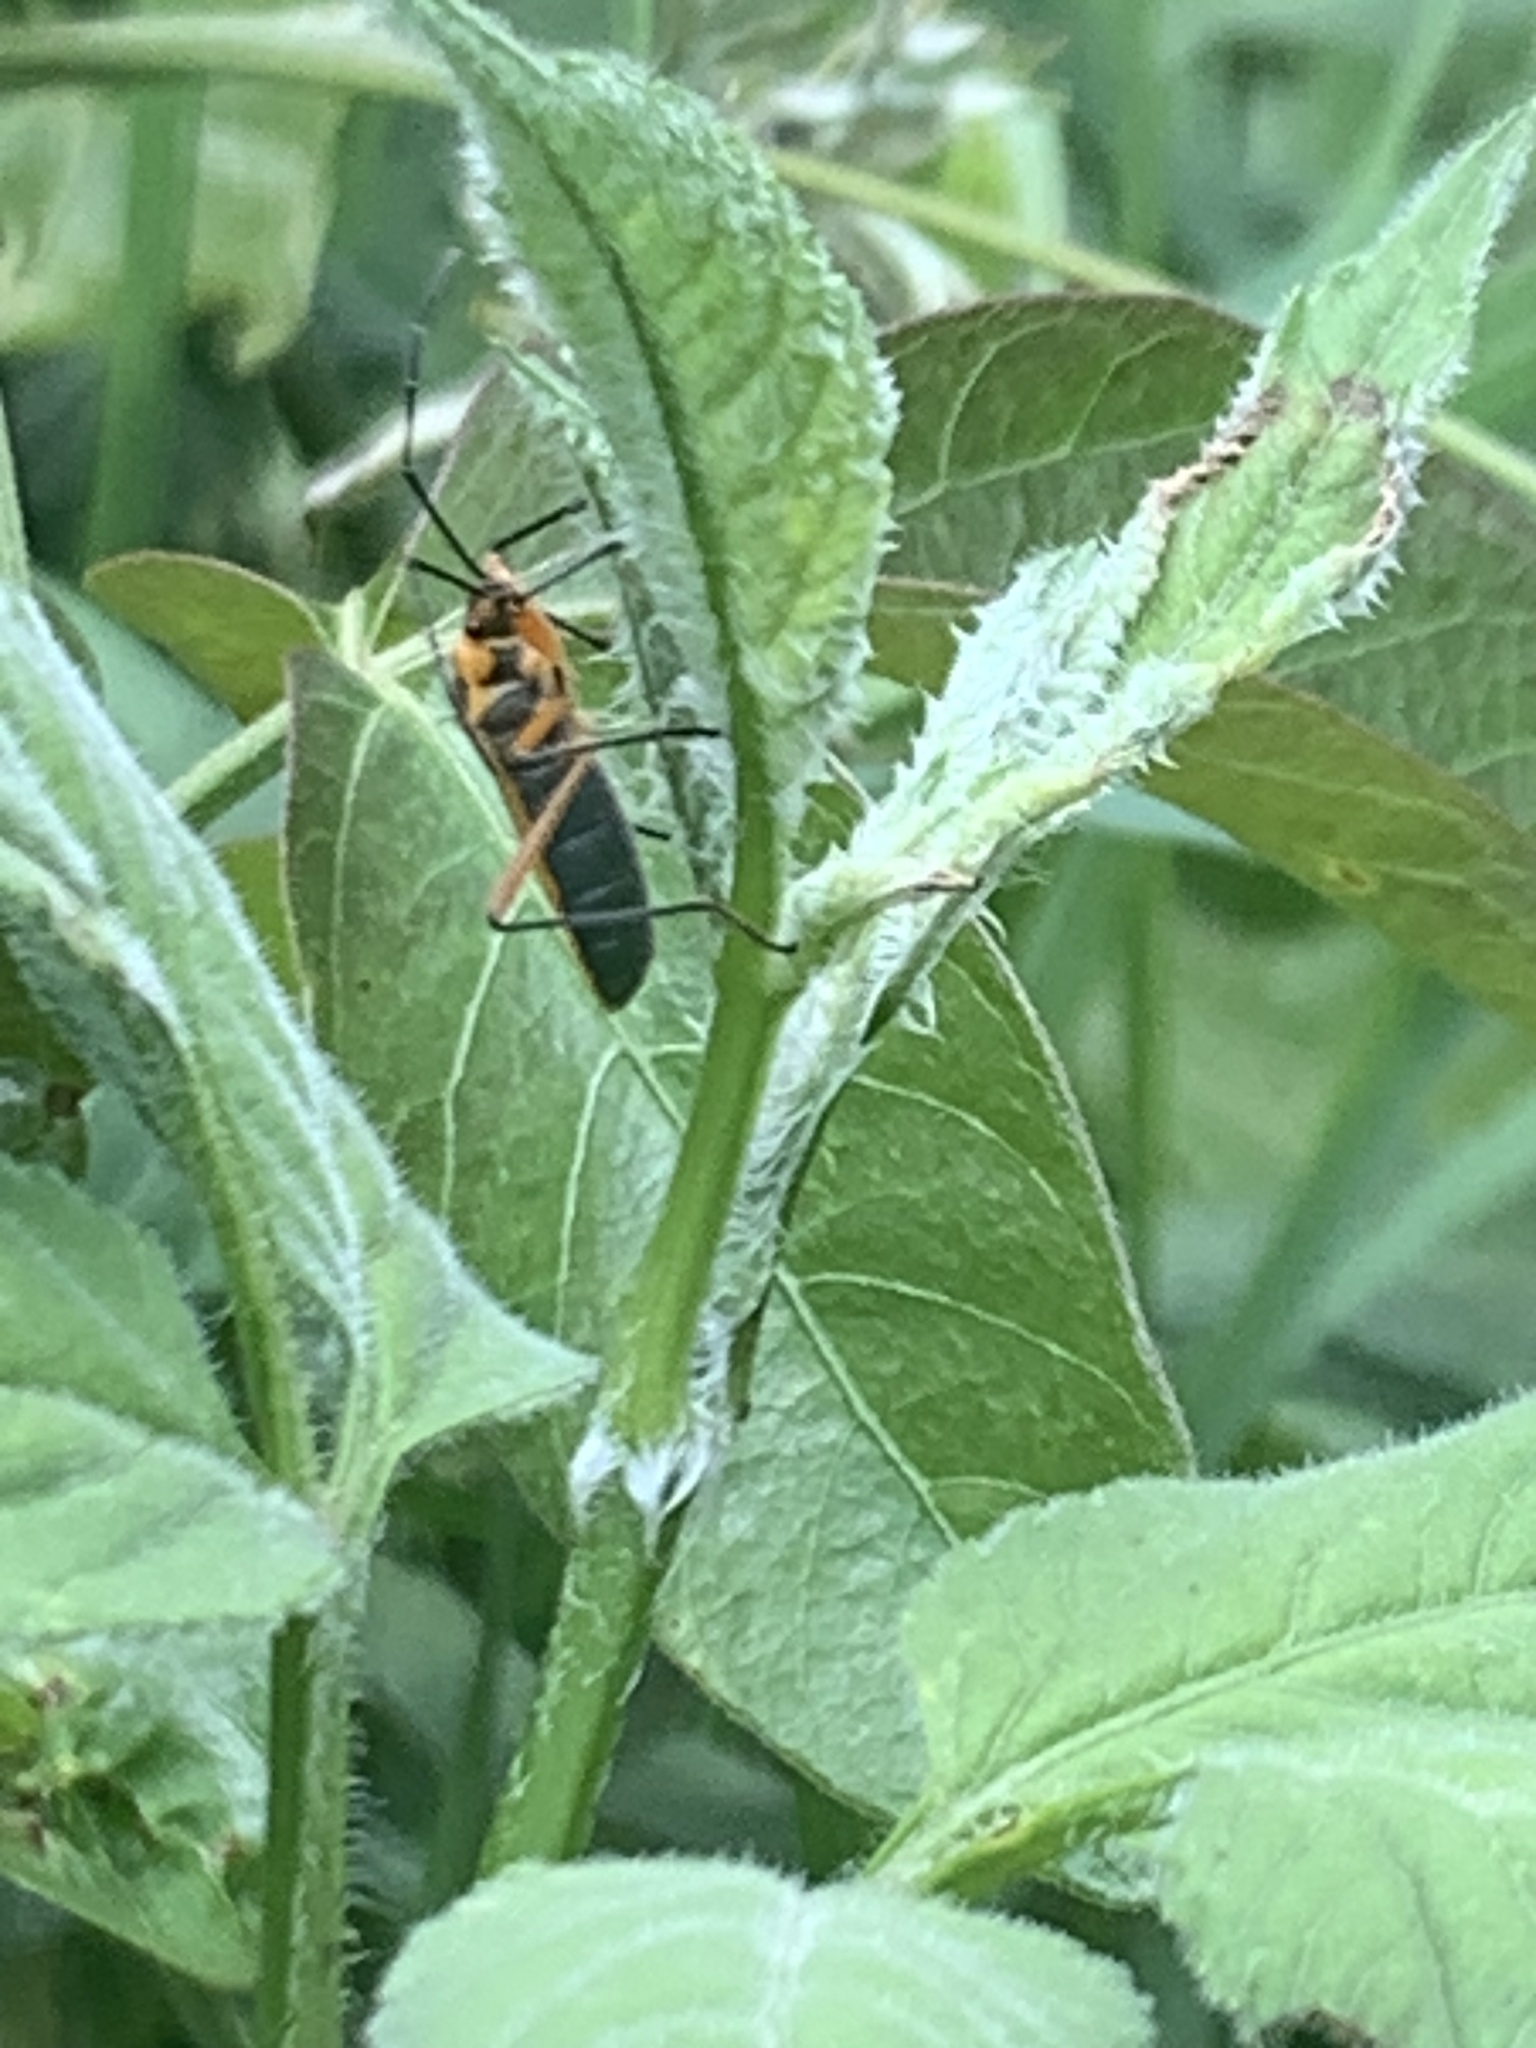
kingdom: Animalia
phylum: Arthropoda
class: Insecta
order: Hemiptera
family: Largidae
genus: Stenomacra
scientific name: Stenomacra marginella
